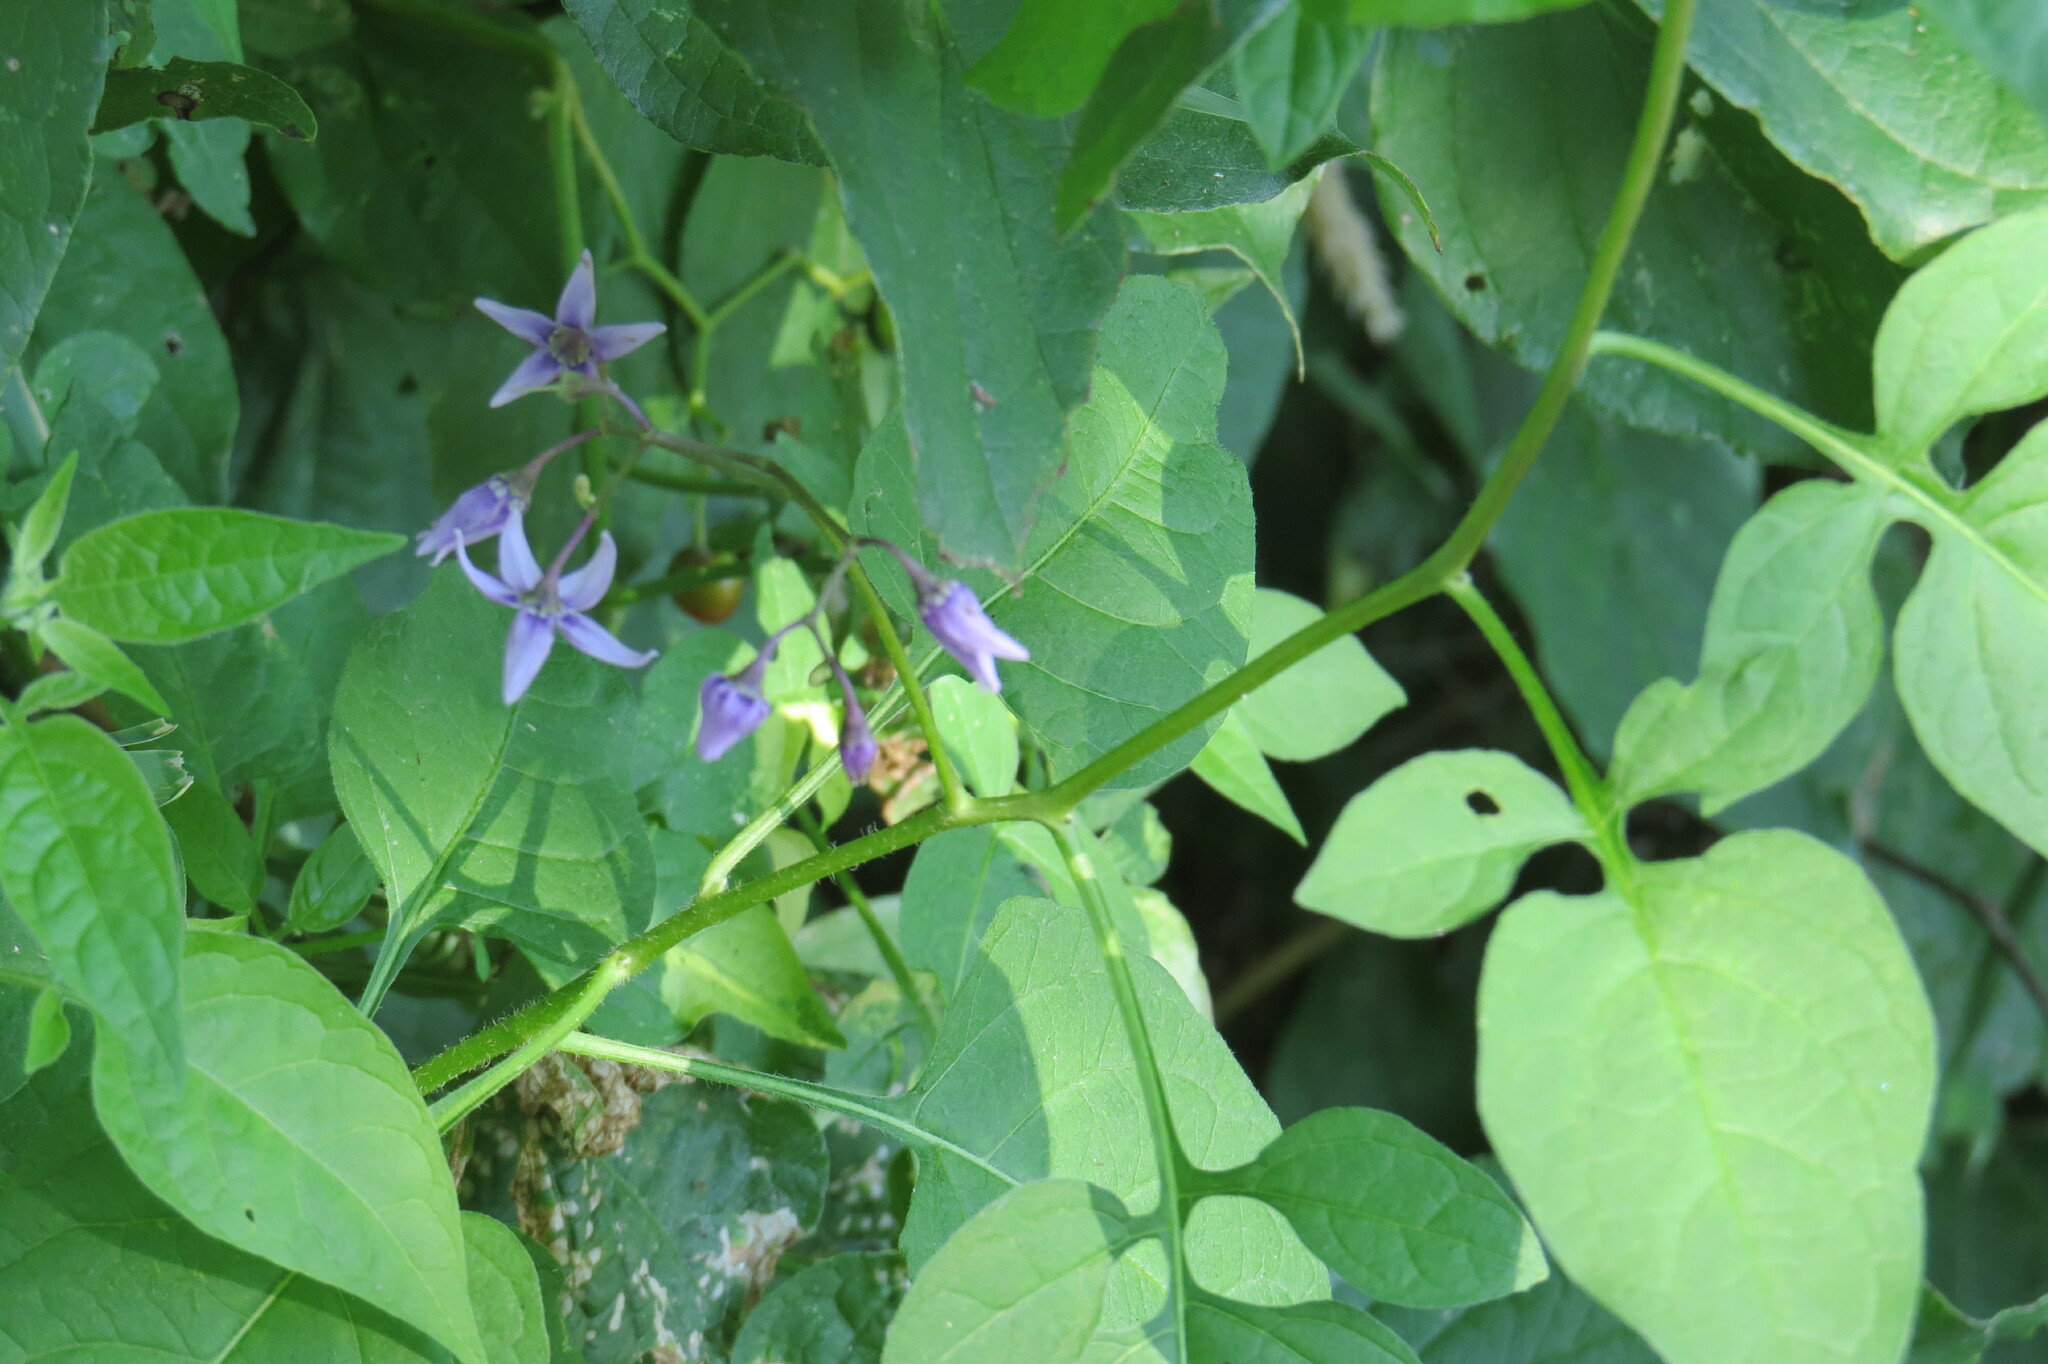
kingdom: Plantae
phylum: Tracheophyta
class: Magnoliopsida
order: Solanales
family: Solanaceae
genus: Solanum
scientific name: Solanum dulcamara
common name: Climbing nightshade
